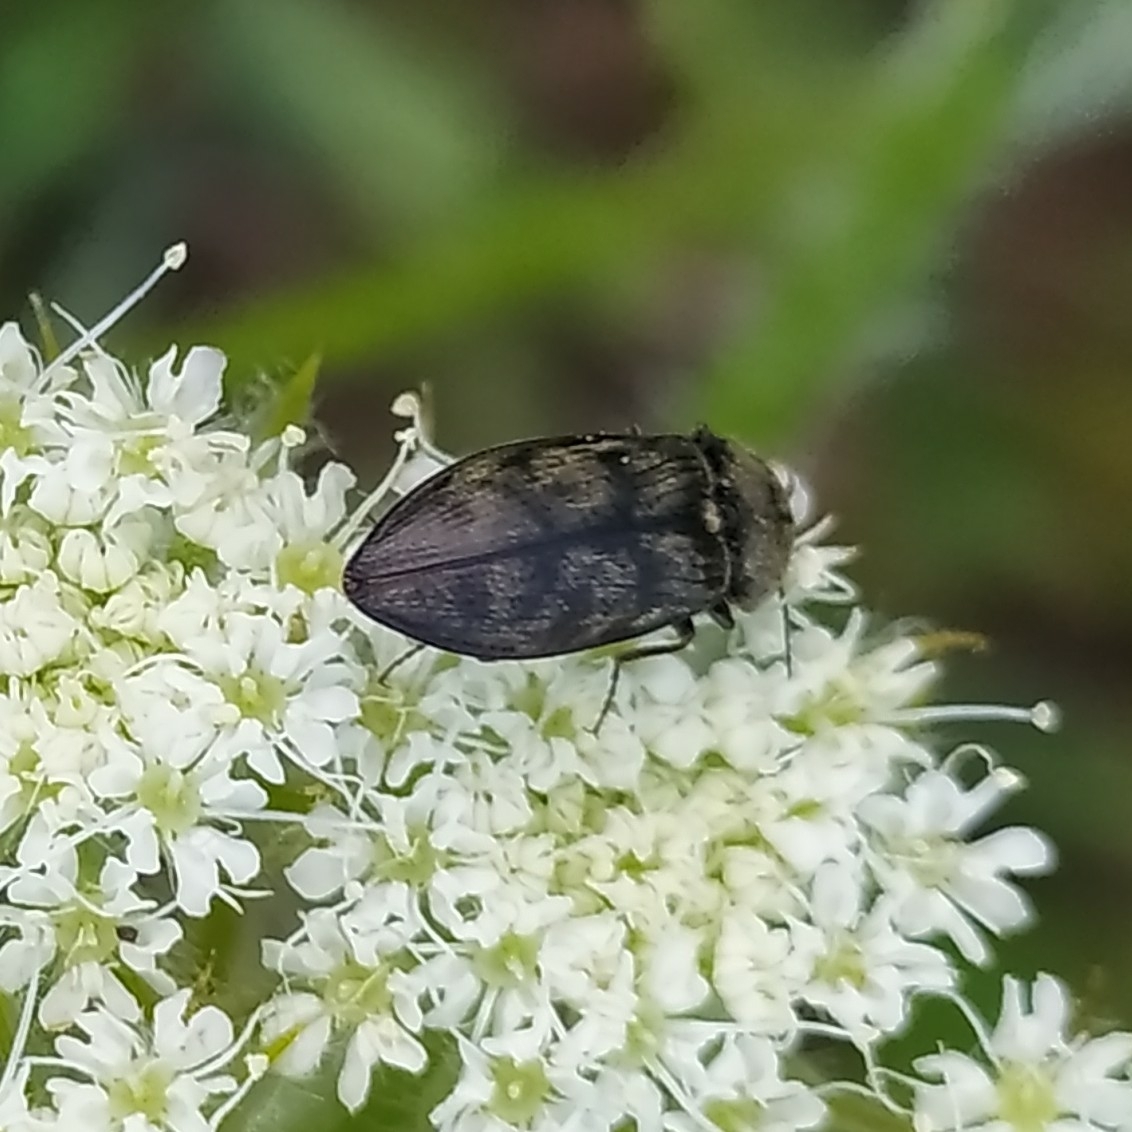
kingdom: Animalia
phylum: Arthropoda
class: Insecta
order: Coleoptera
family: Elateridae
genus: Prosternon
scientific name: Prosternon tessellatum
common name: Chequered click beetle
